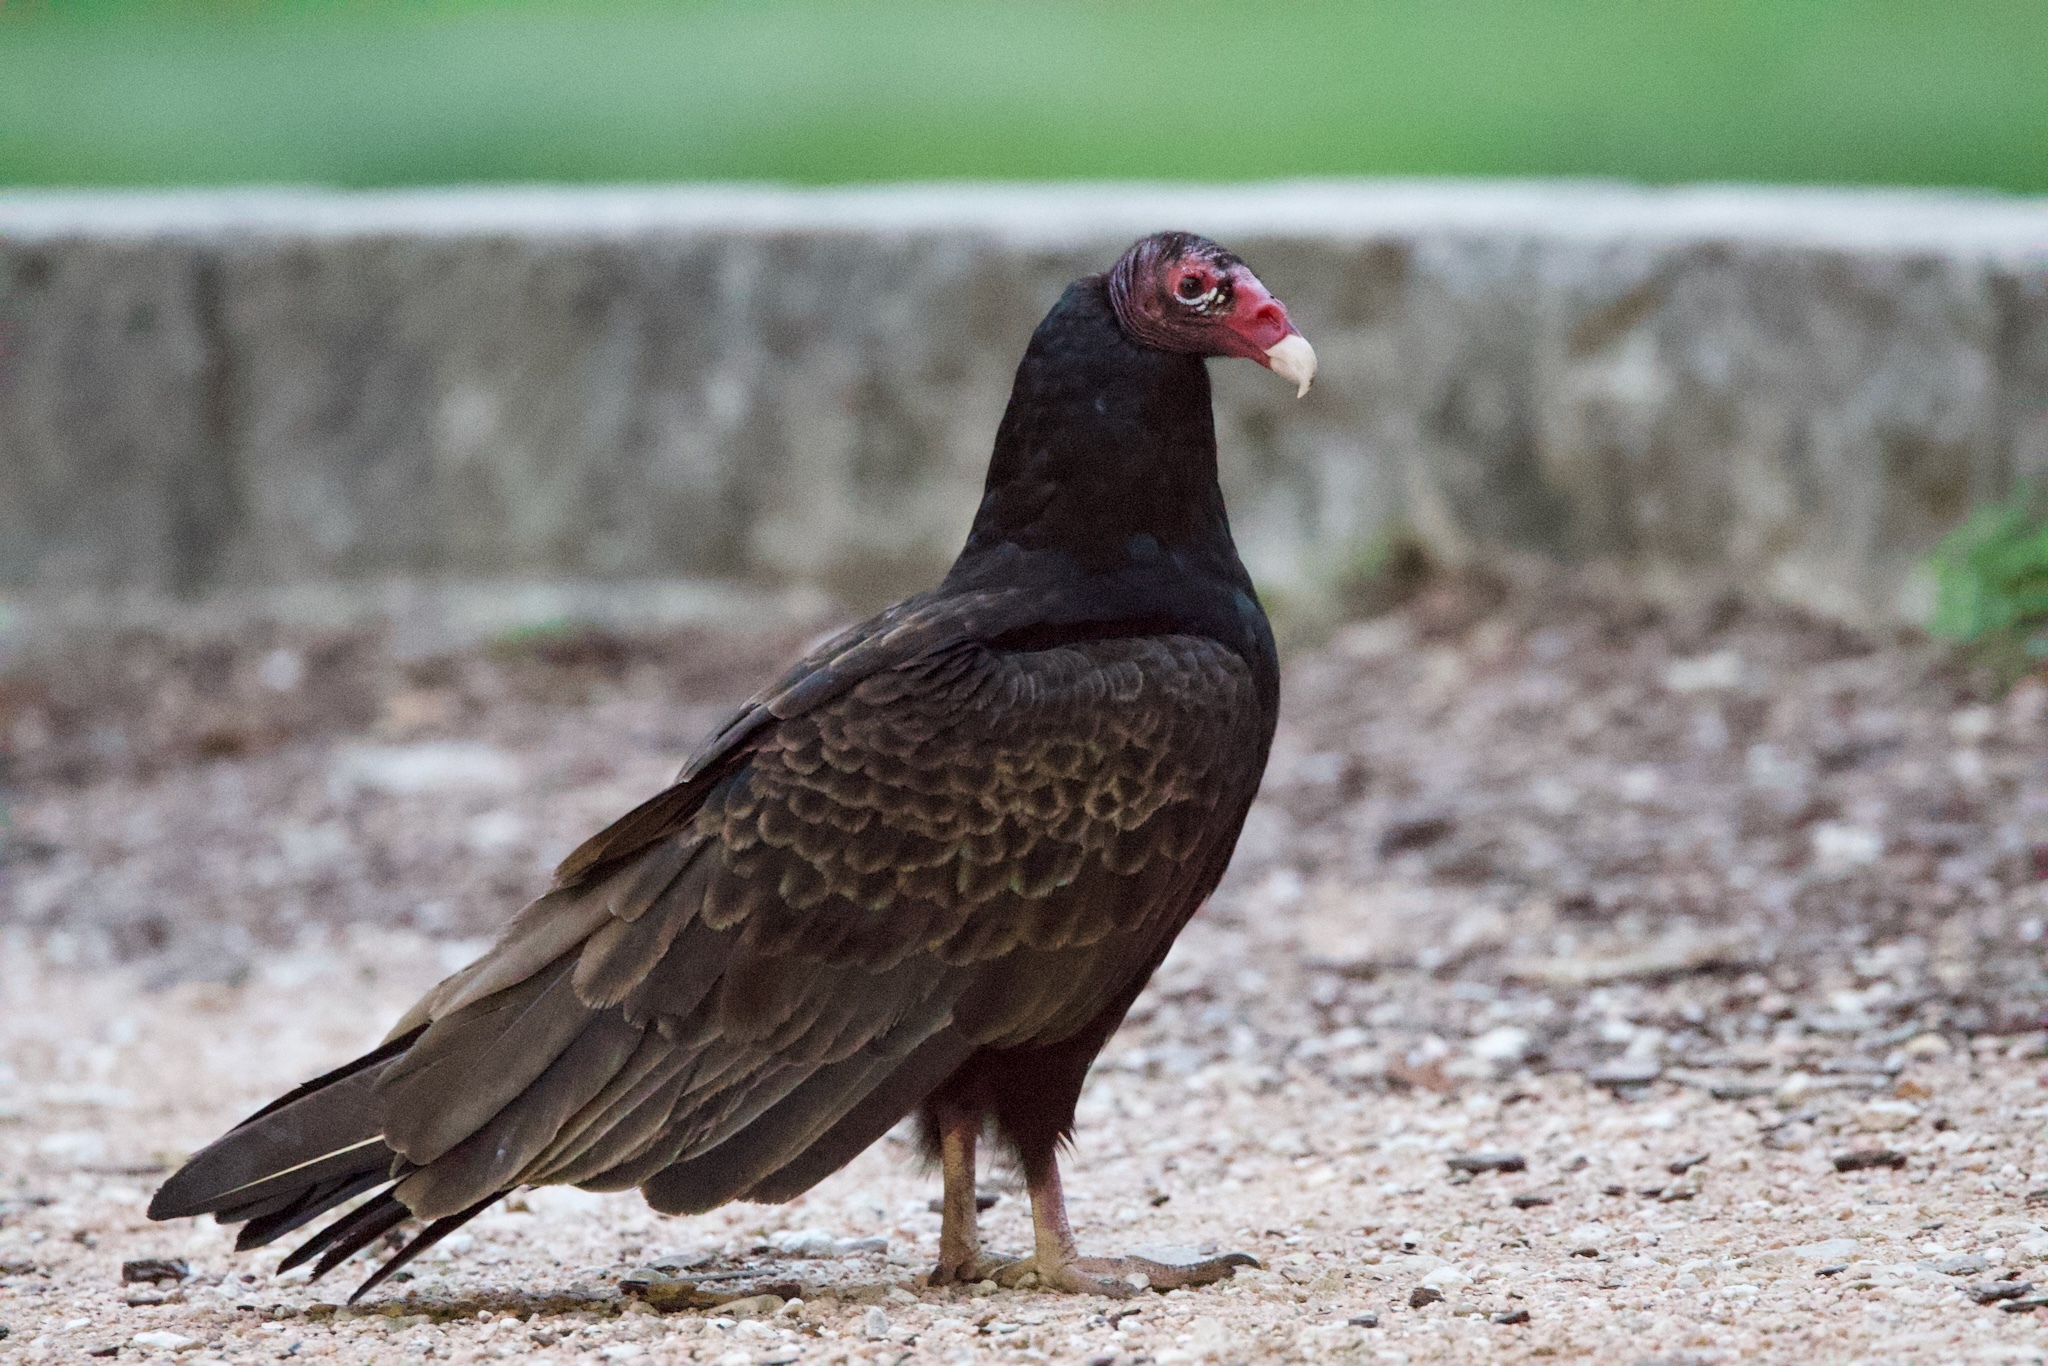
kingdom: Animalia
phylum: Chordata
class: Aves
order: Accipitriformes
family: Cathartidae
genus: Cathartes
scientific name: Cathartes aura
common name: Turkey vulture
